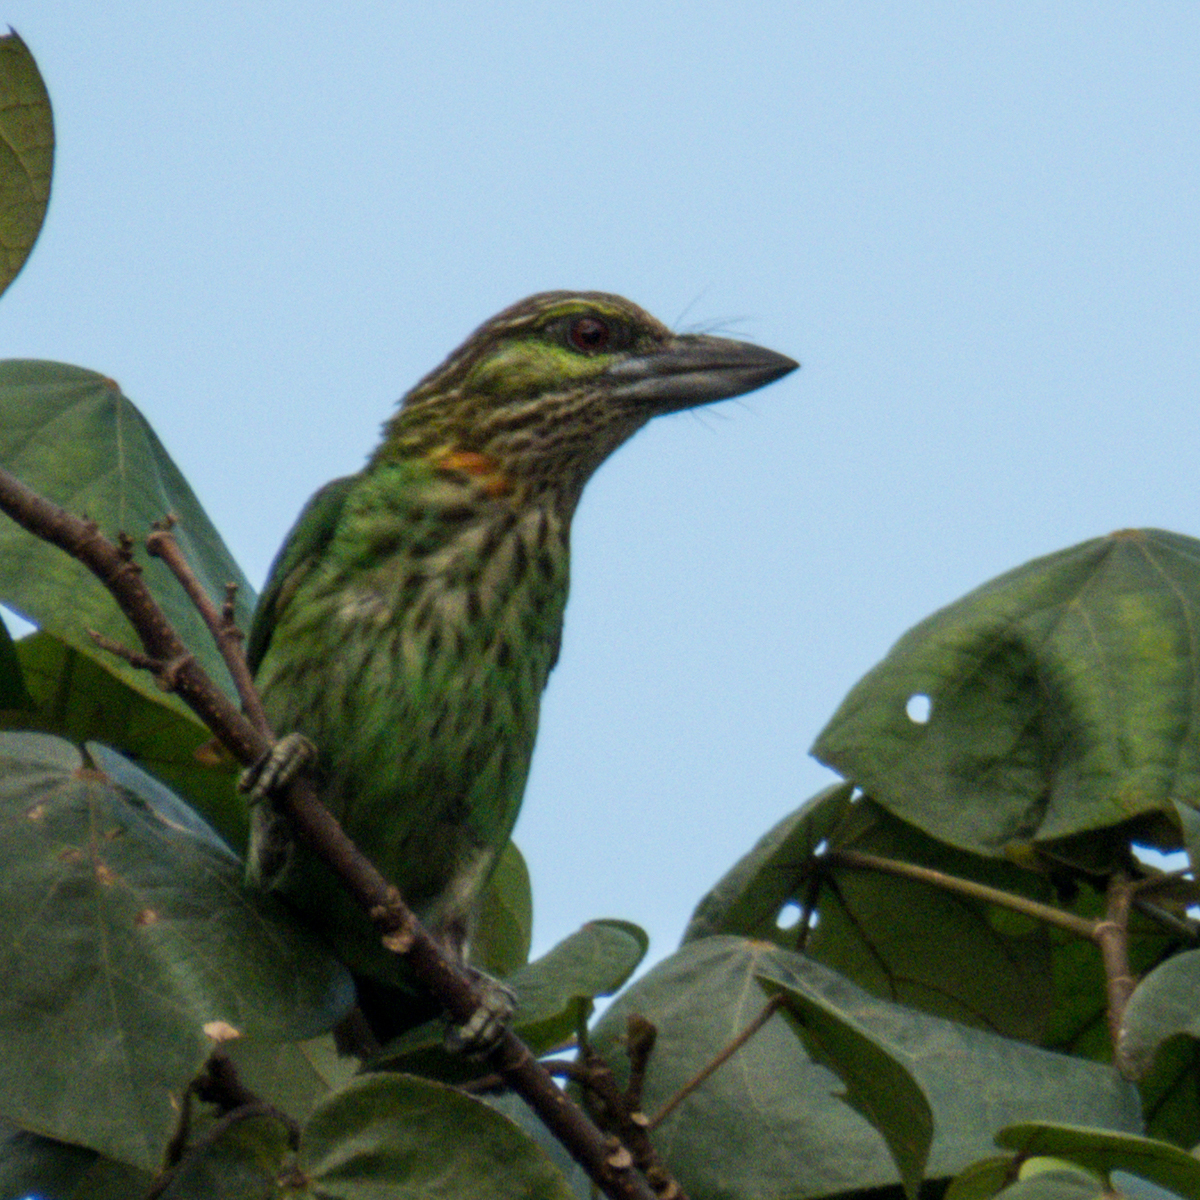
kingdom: Animalia
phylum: Chordata
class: Aves
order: Piciformes
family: Megalaimidae
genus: Psilopogon
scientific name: Psilopogon faiostrictus
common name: Green-eared barbet
